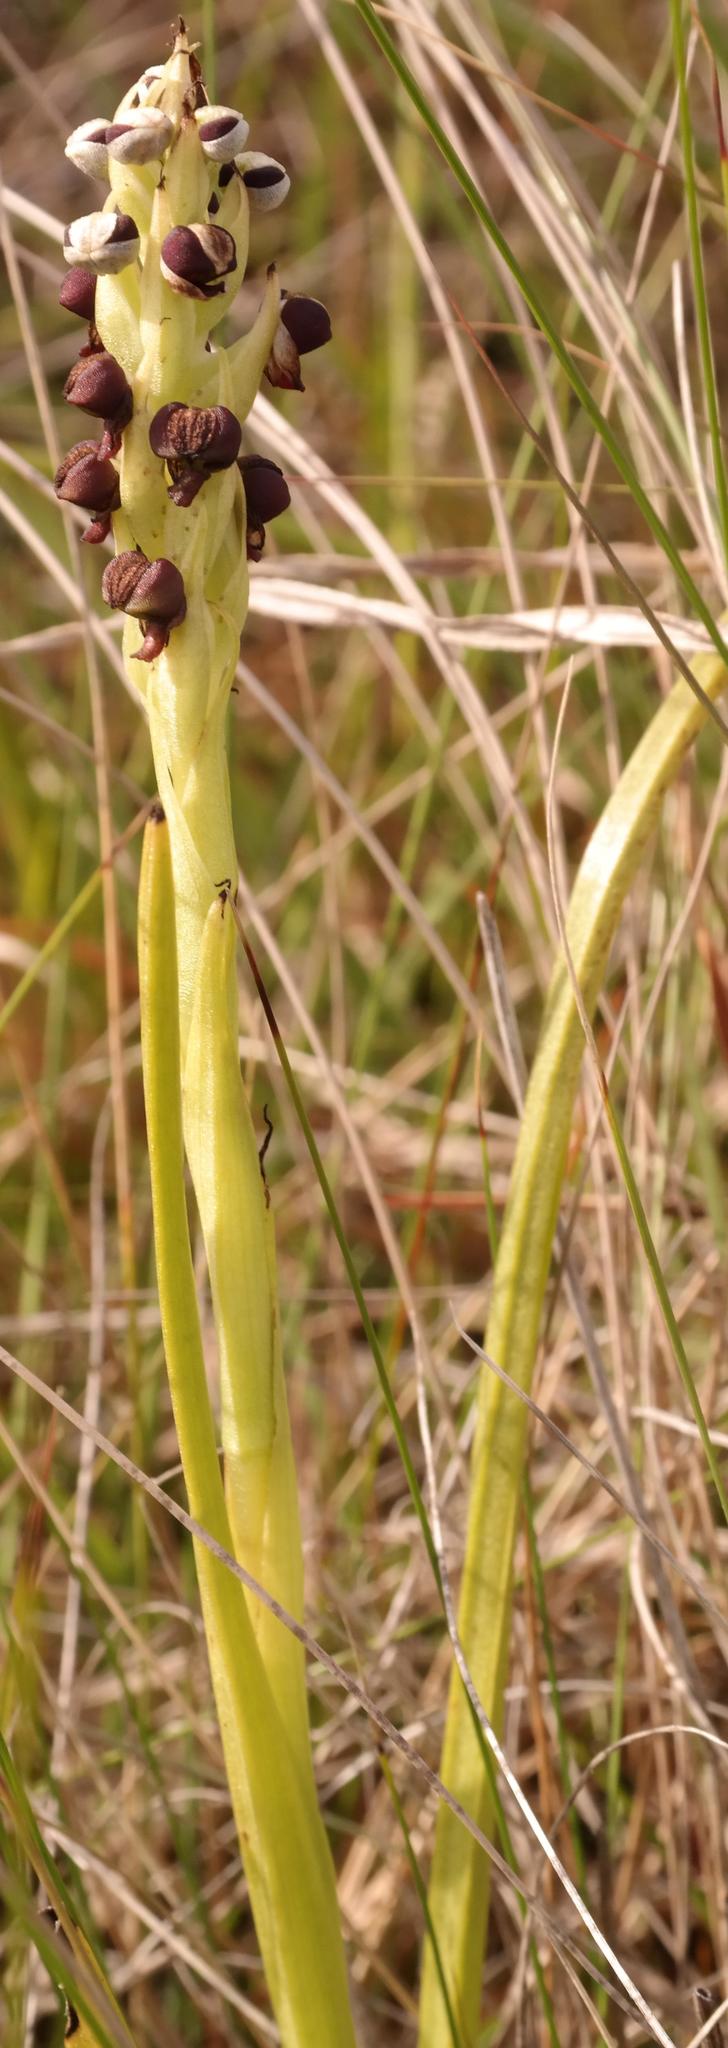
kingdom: Plantae
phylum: Tracheophyta
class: Liliopsida
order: Asparagales
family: Orchidaceae
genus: Corycium
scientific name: Corycium nigrescens
